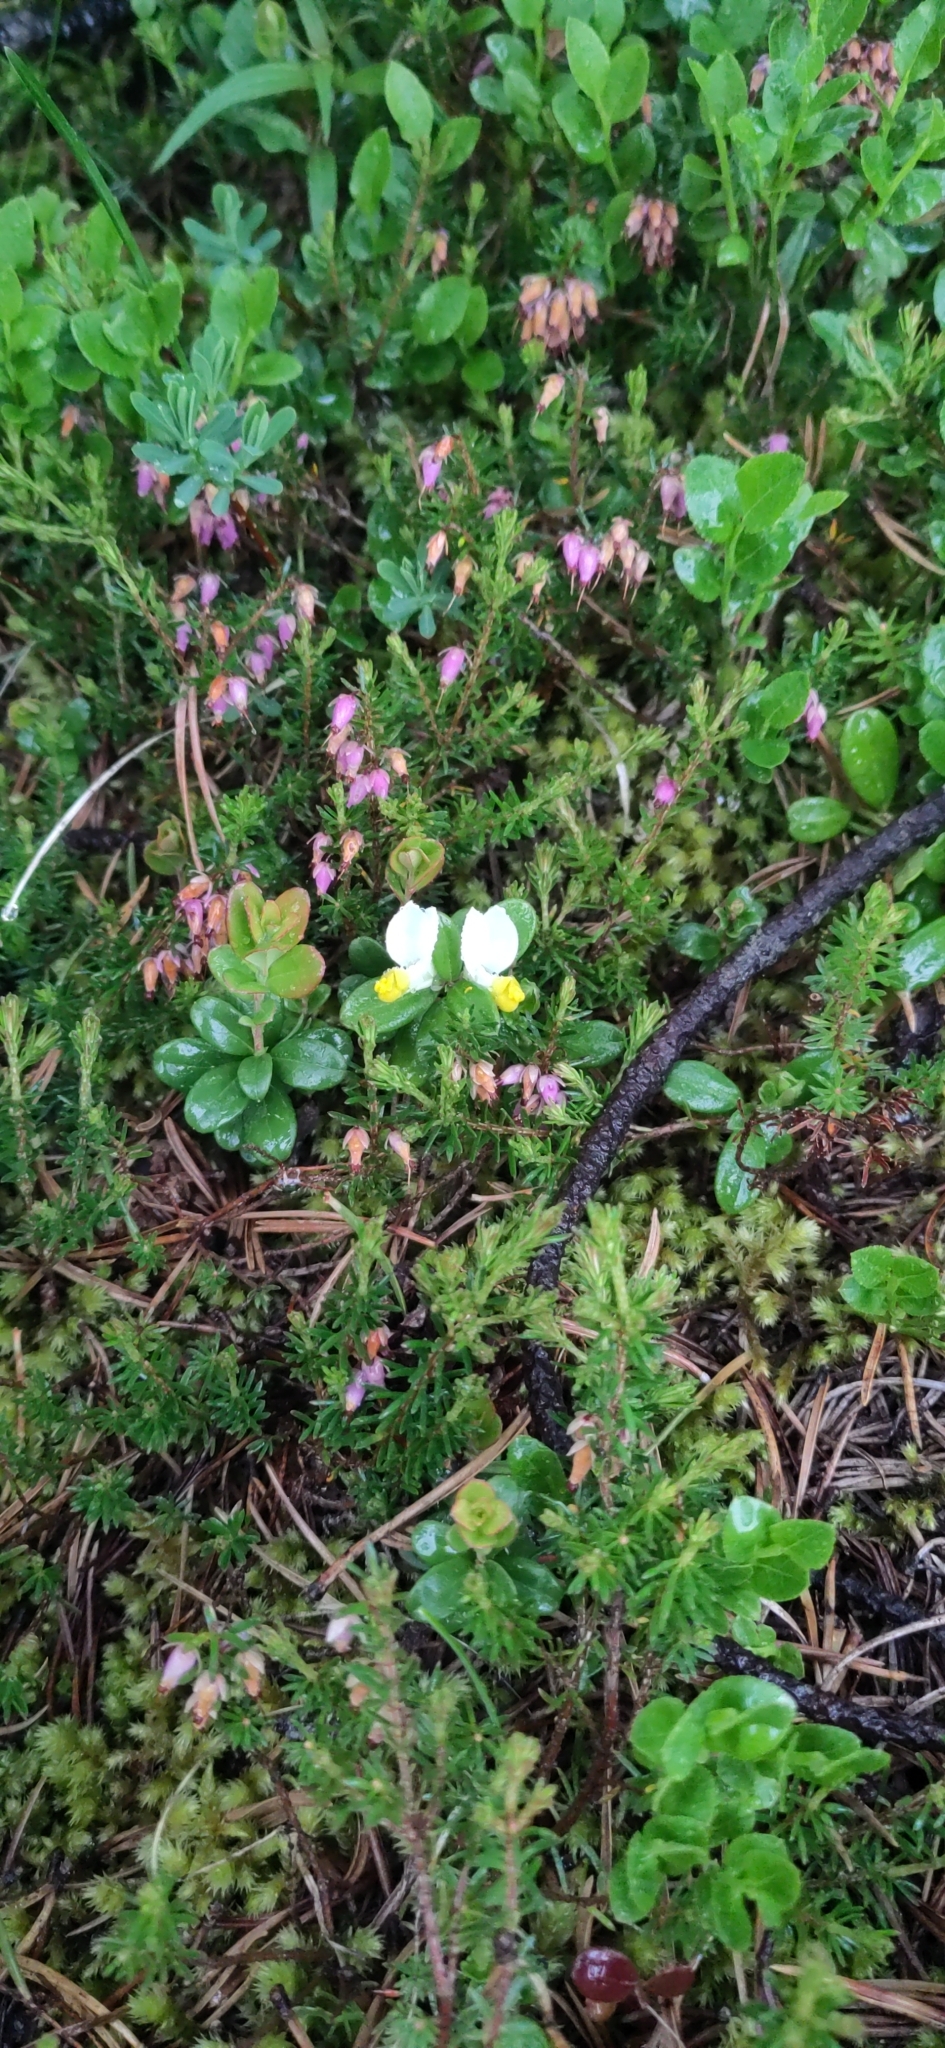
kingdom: Plantae
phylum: Tracheophyta
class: Magnoliopsida
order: Fabales
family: Polygalaceae
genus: Polygaloides
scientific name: Polygaloides chamaebuxus
